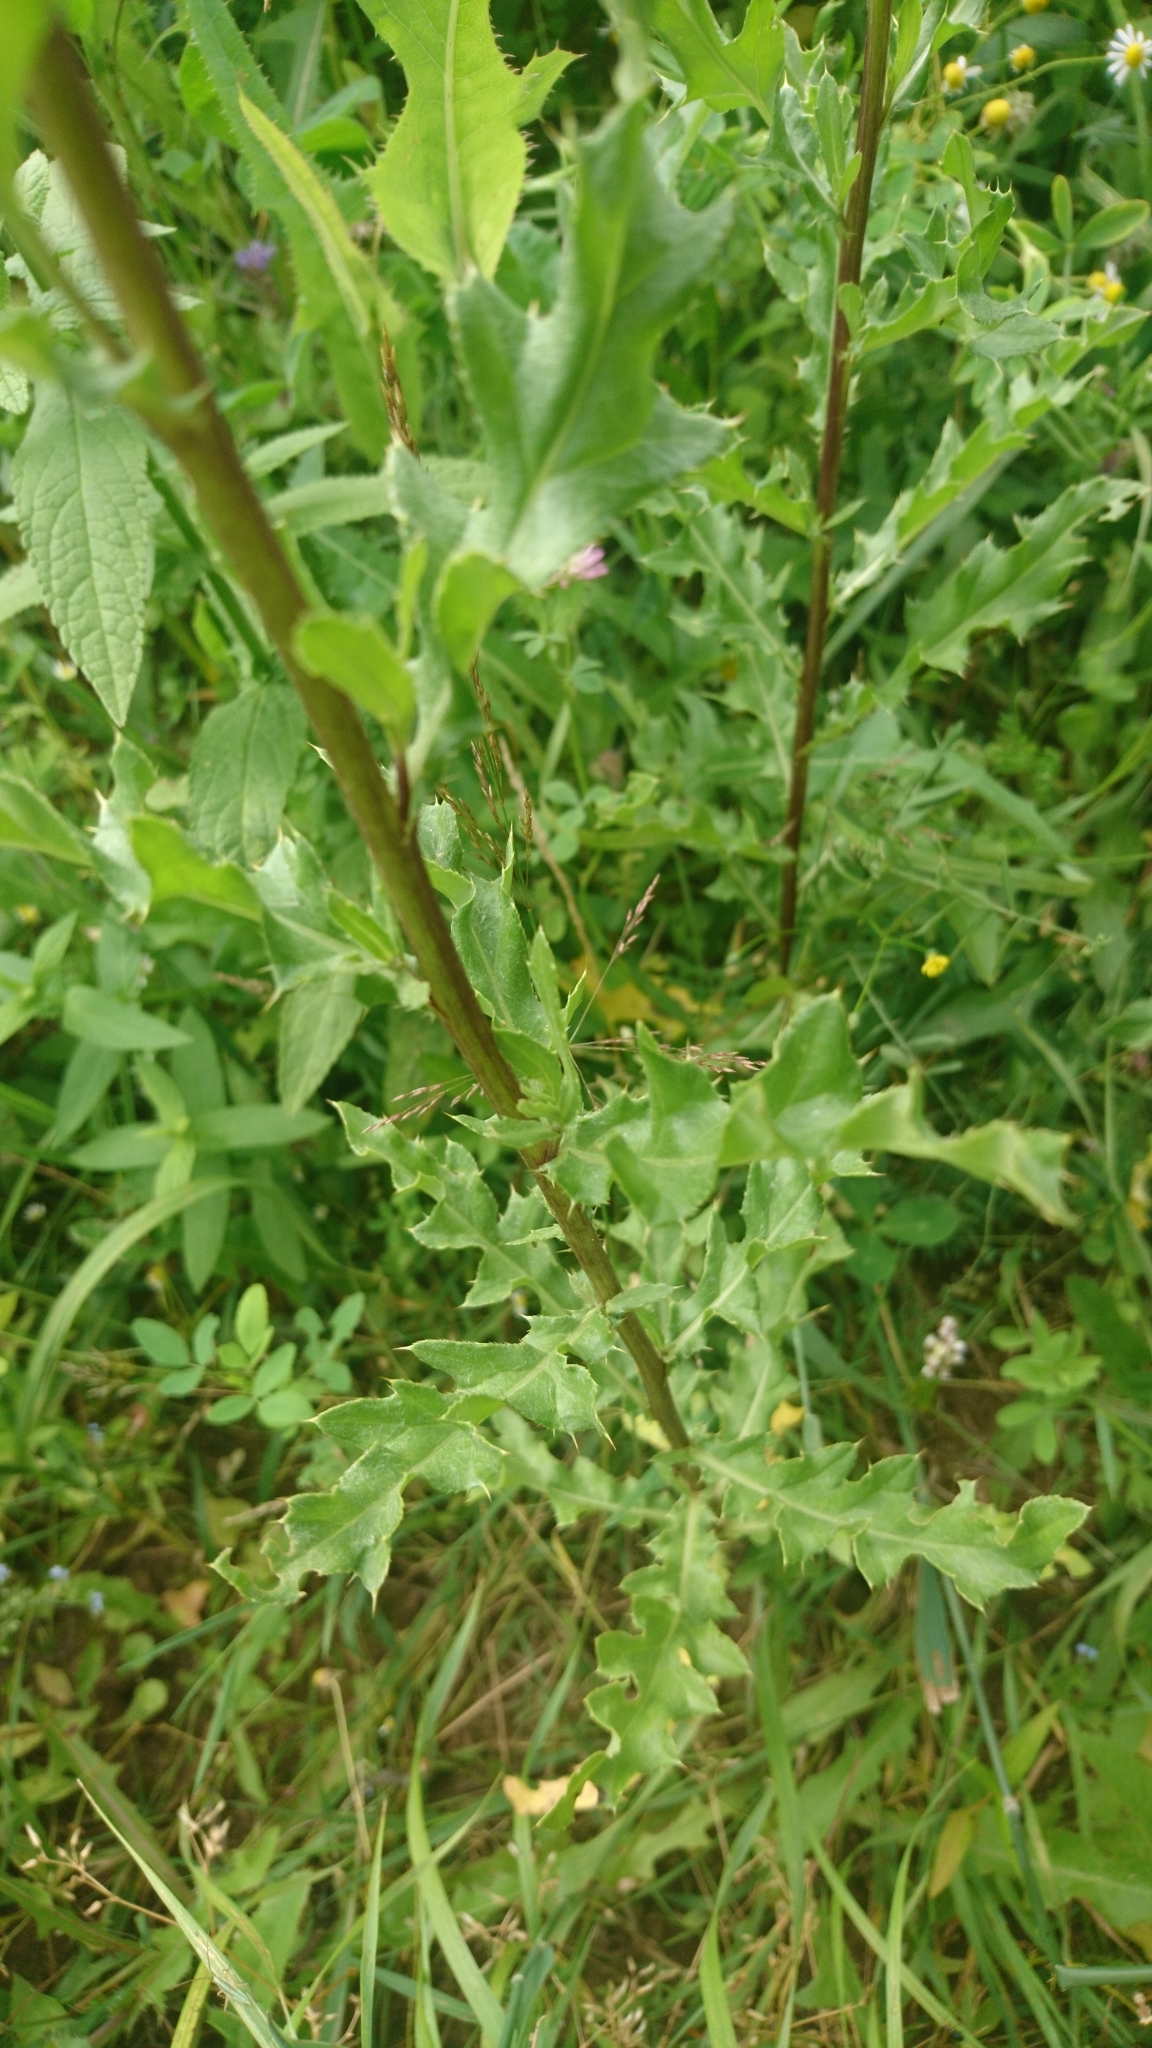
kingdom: Plantae
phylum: Tracheophyta
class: Magnoliopsida
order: Asterales
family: Asteraceae
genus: Cirsium
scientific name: Cirsium arvense
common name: Creeping thistle
